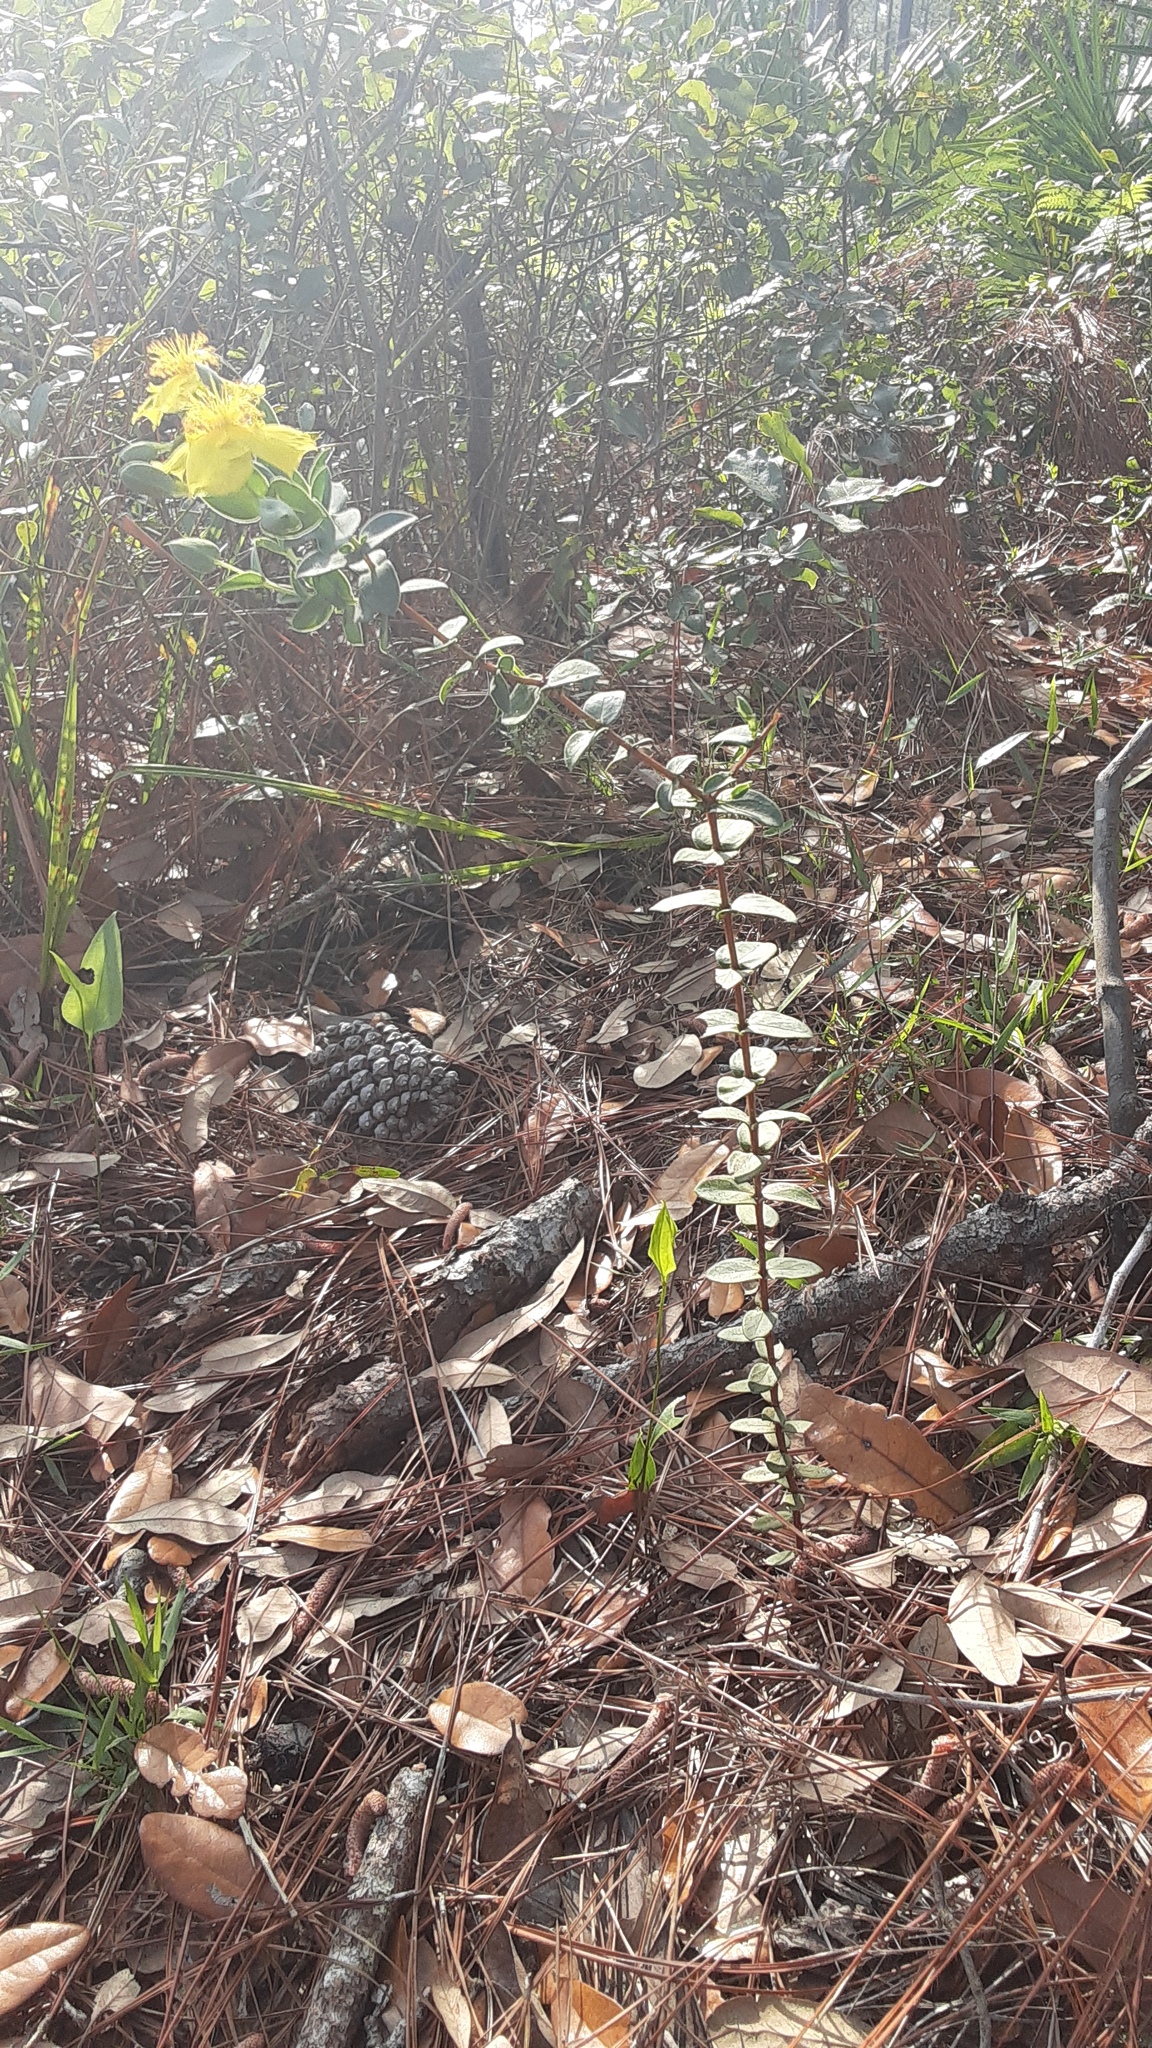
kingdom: Plantae
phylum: Tracheophyta
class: Magnoliopsida
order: Malpighiales
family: Hypericaceae
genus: Hypericum
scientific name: Hypericum tetrapetalum
